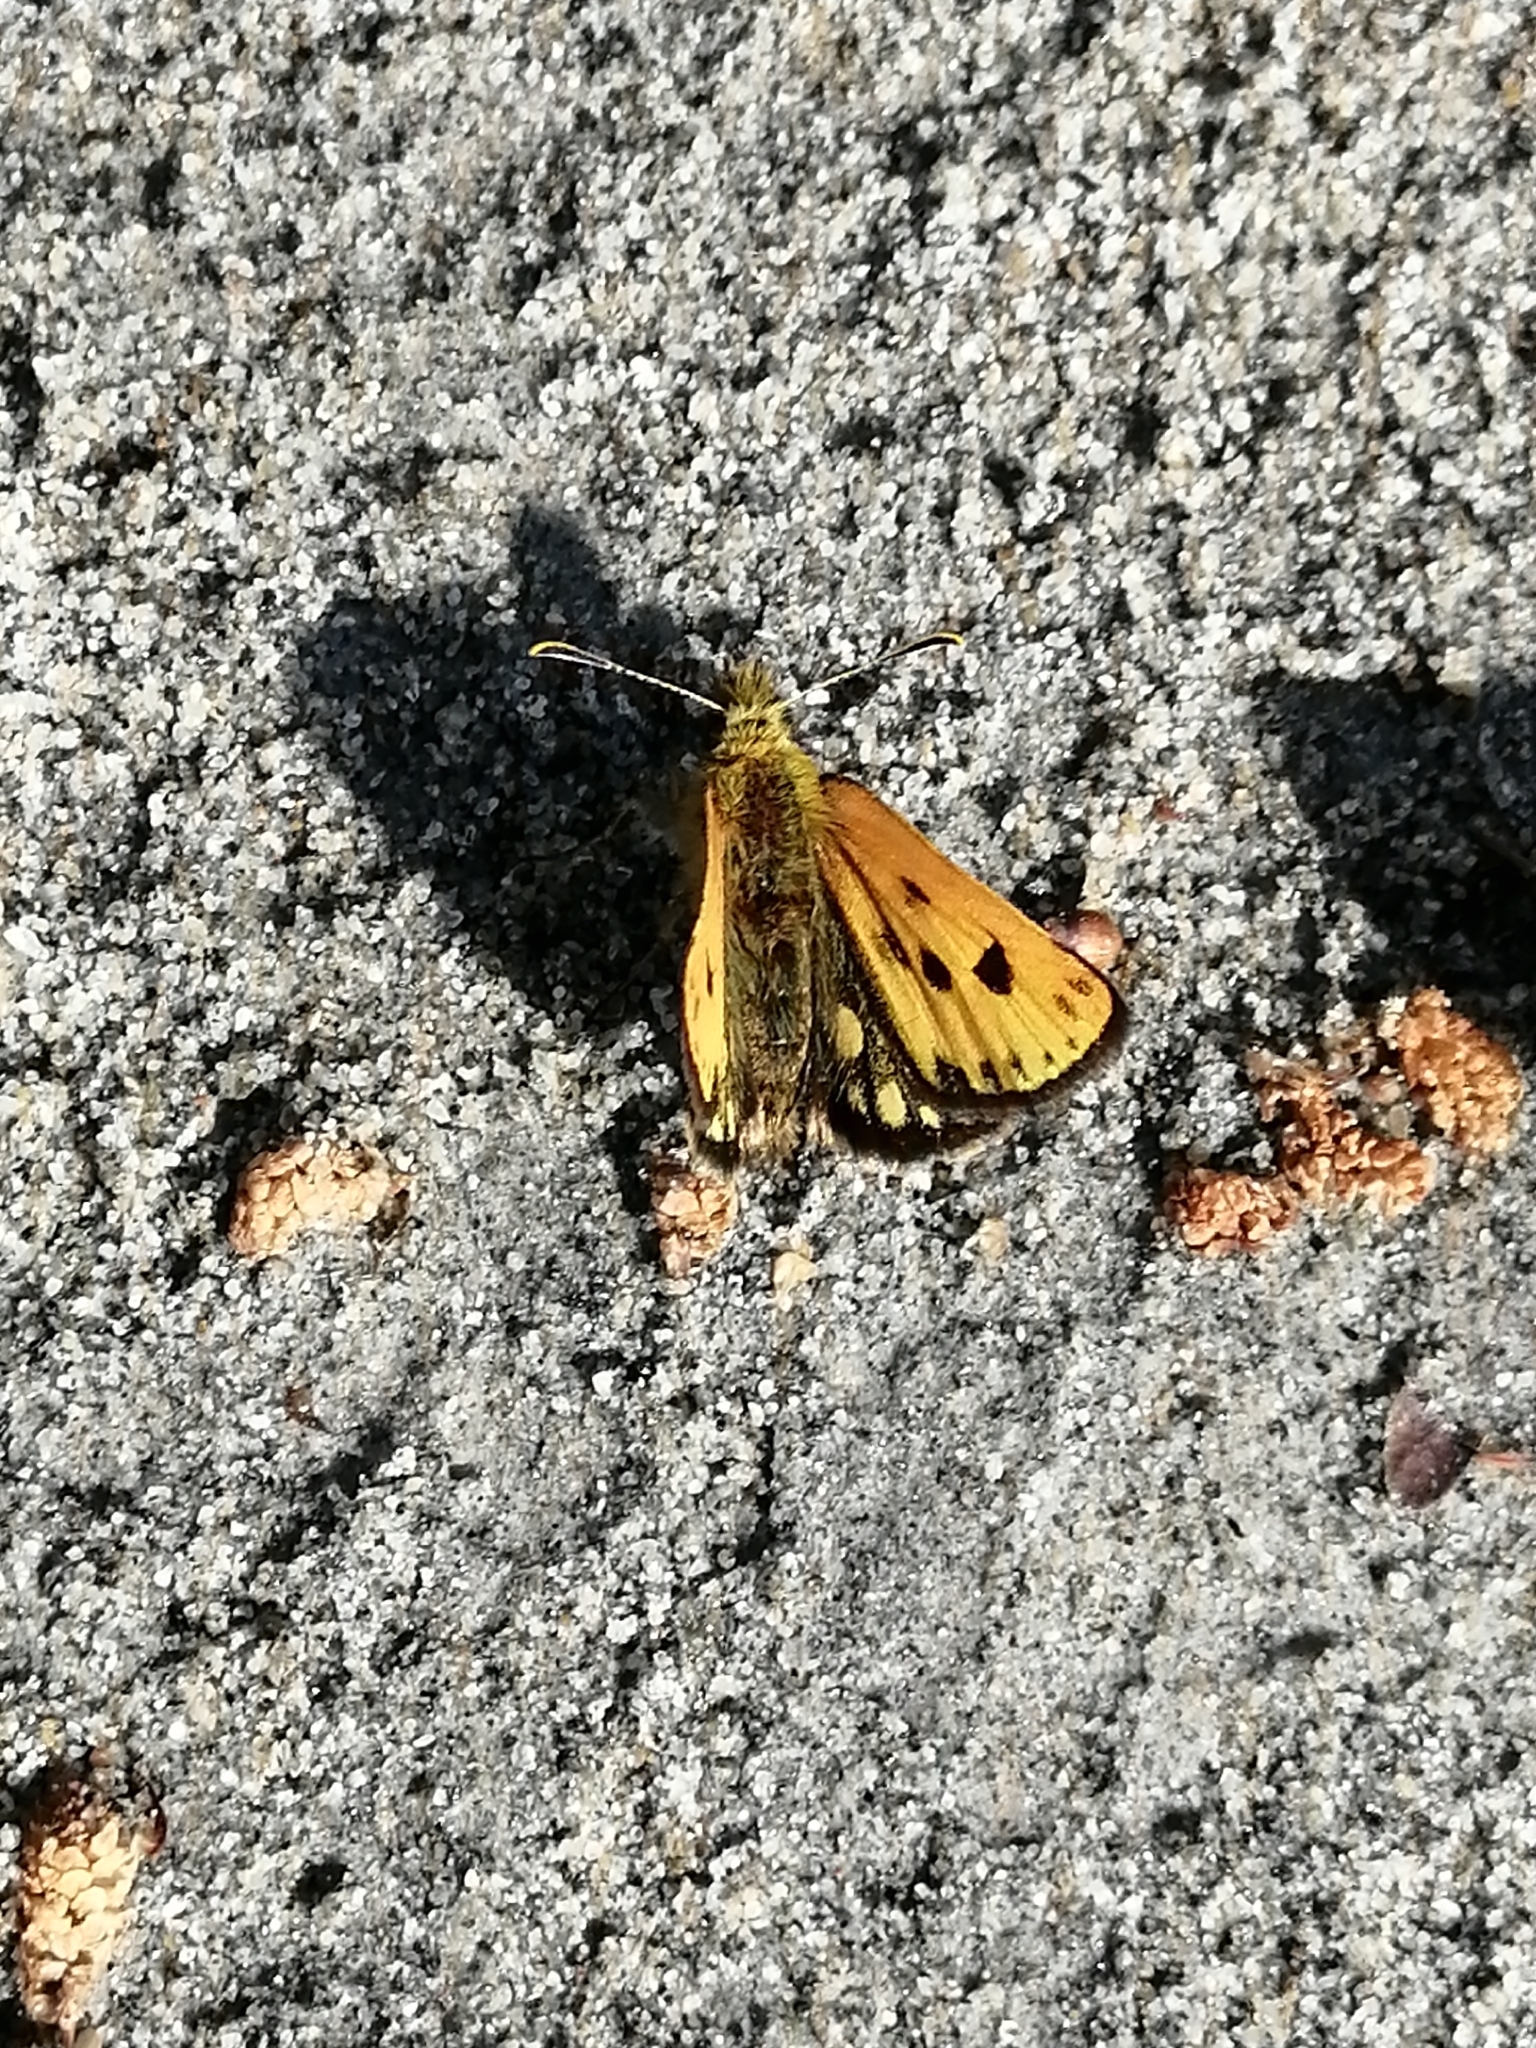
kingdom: Animalia
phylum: Arthropoda
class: Insecta
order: Lepidoptera
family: Hesperiidae
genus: Carterocephalus
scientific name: Carterocephalus silvicola
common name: Northern chequered skipper
